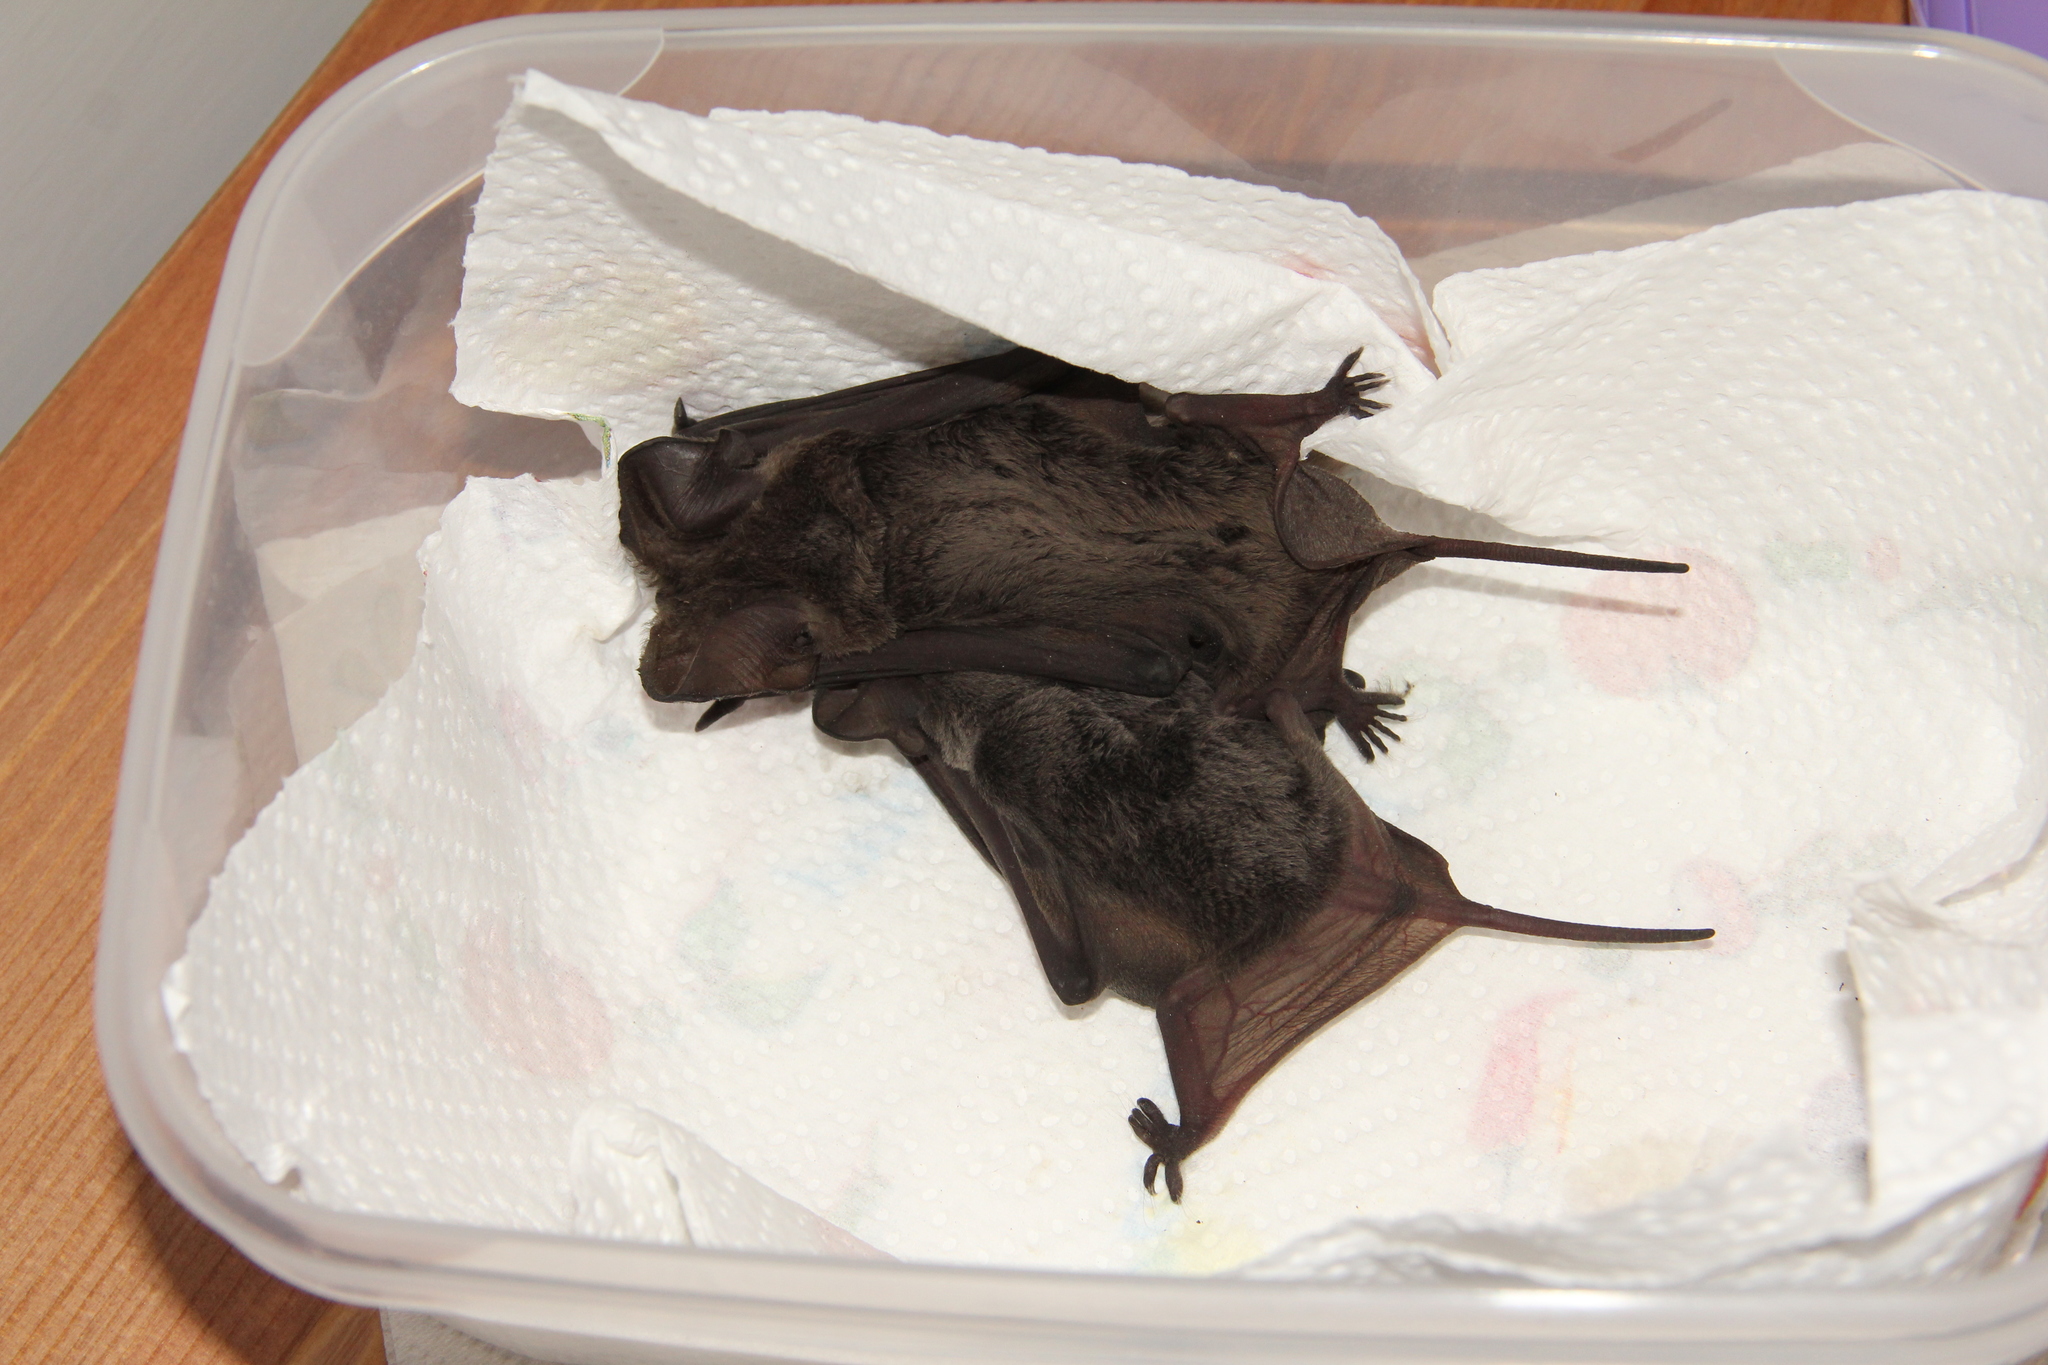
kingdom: Animalia
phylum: Chordata
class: Mammalia
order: Chiroptera
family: Molossidae
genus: Tadarida
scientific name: Tadarida teniotis
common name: European free-tailed bat
